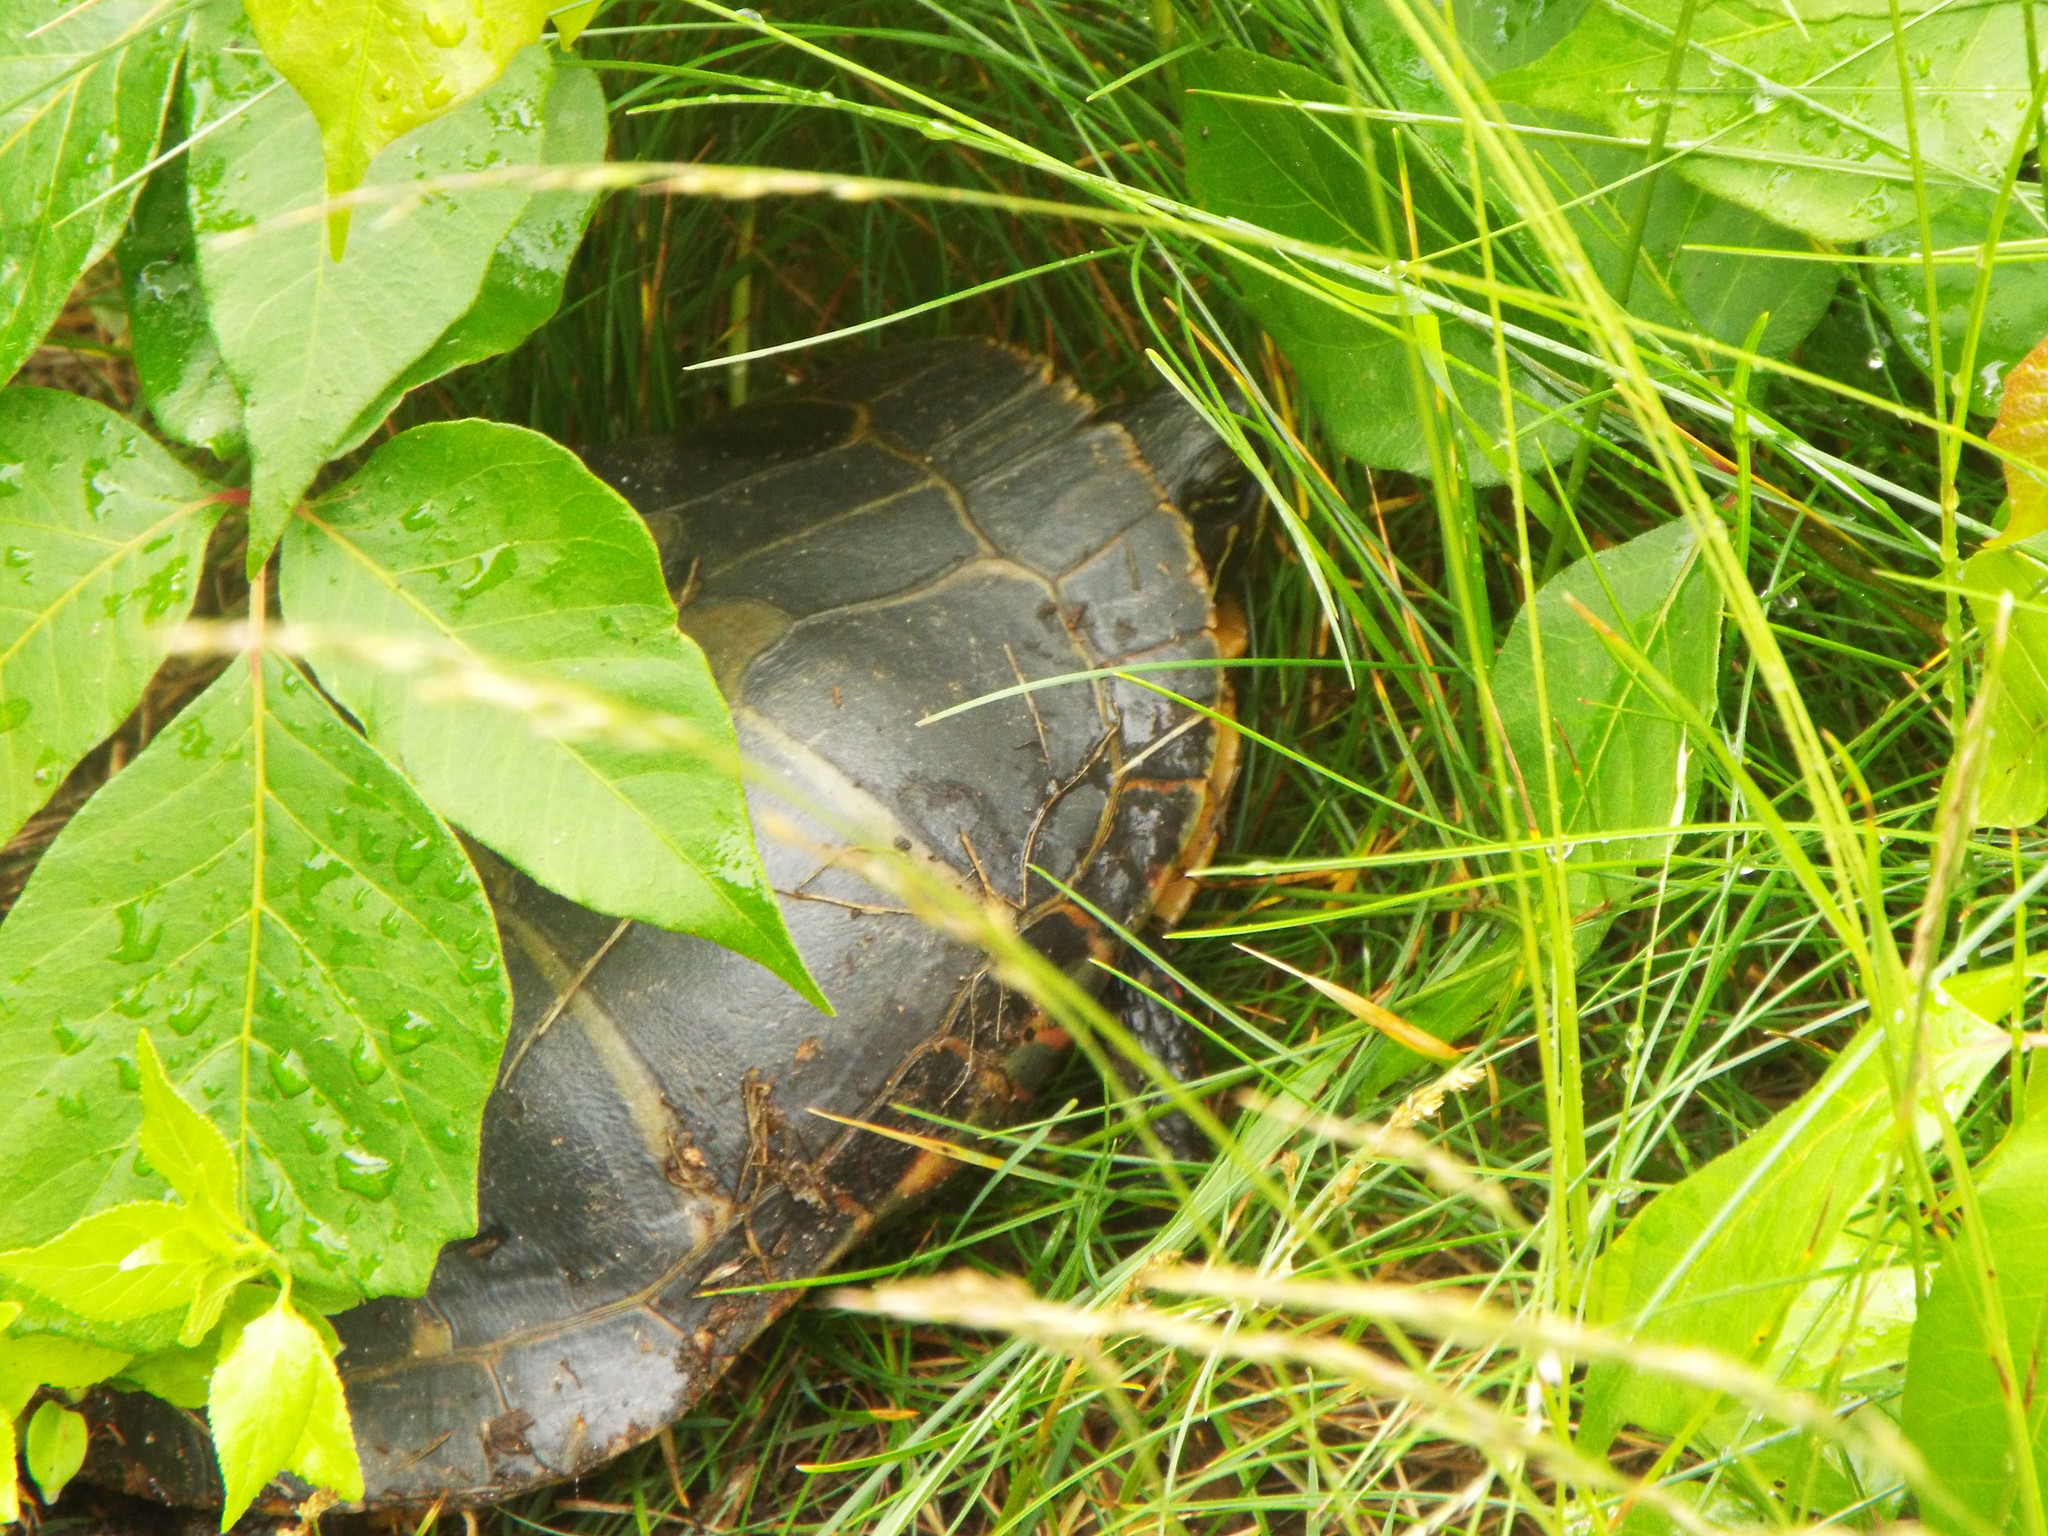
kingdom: Animalia
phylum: Chordata
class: Testudines
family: Emydidae
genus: Chrysemys
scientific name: Chrysemys picta
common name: Painted turtle
